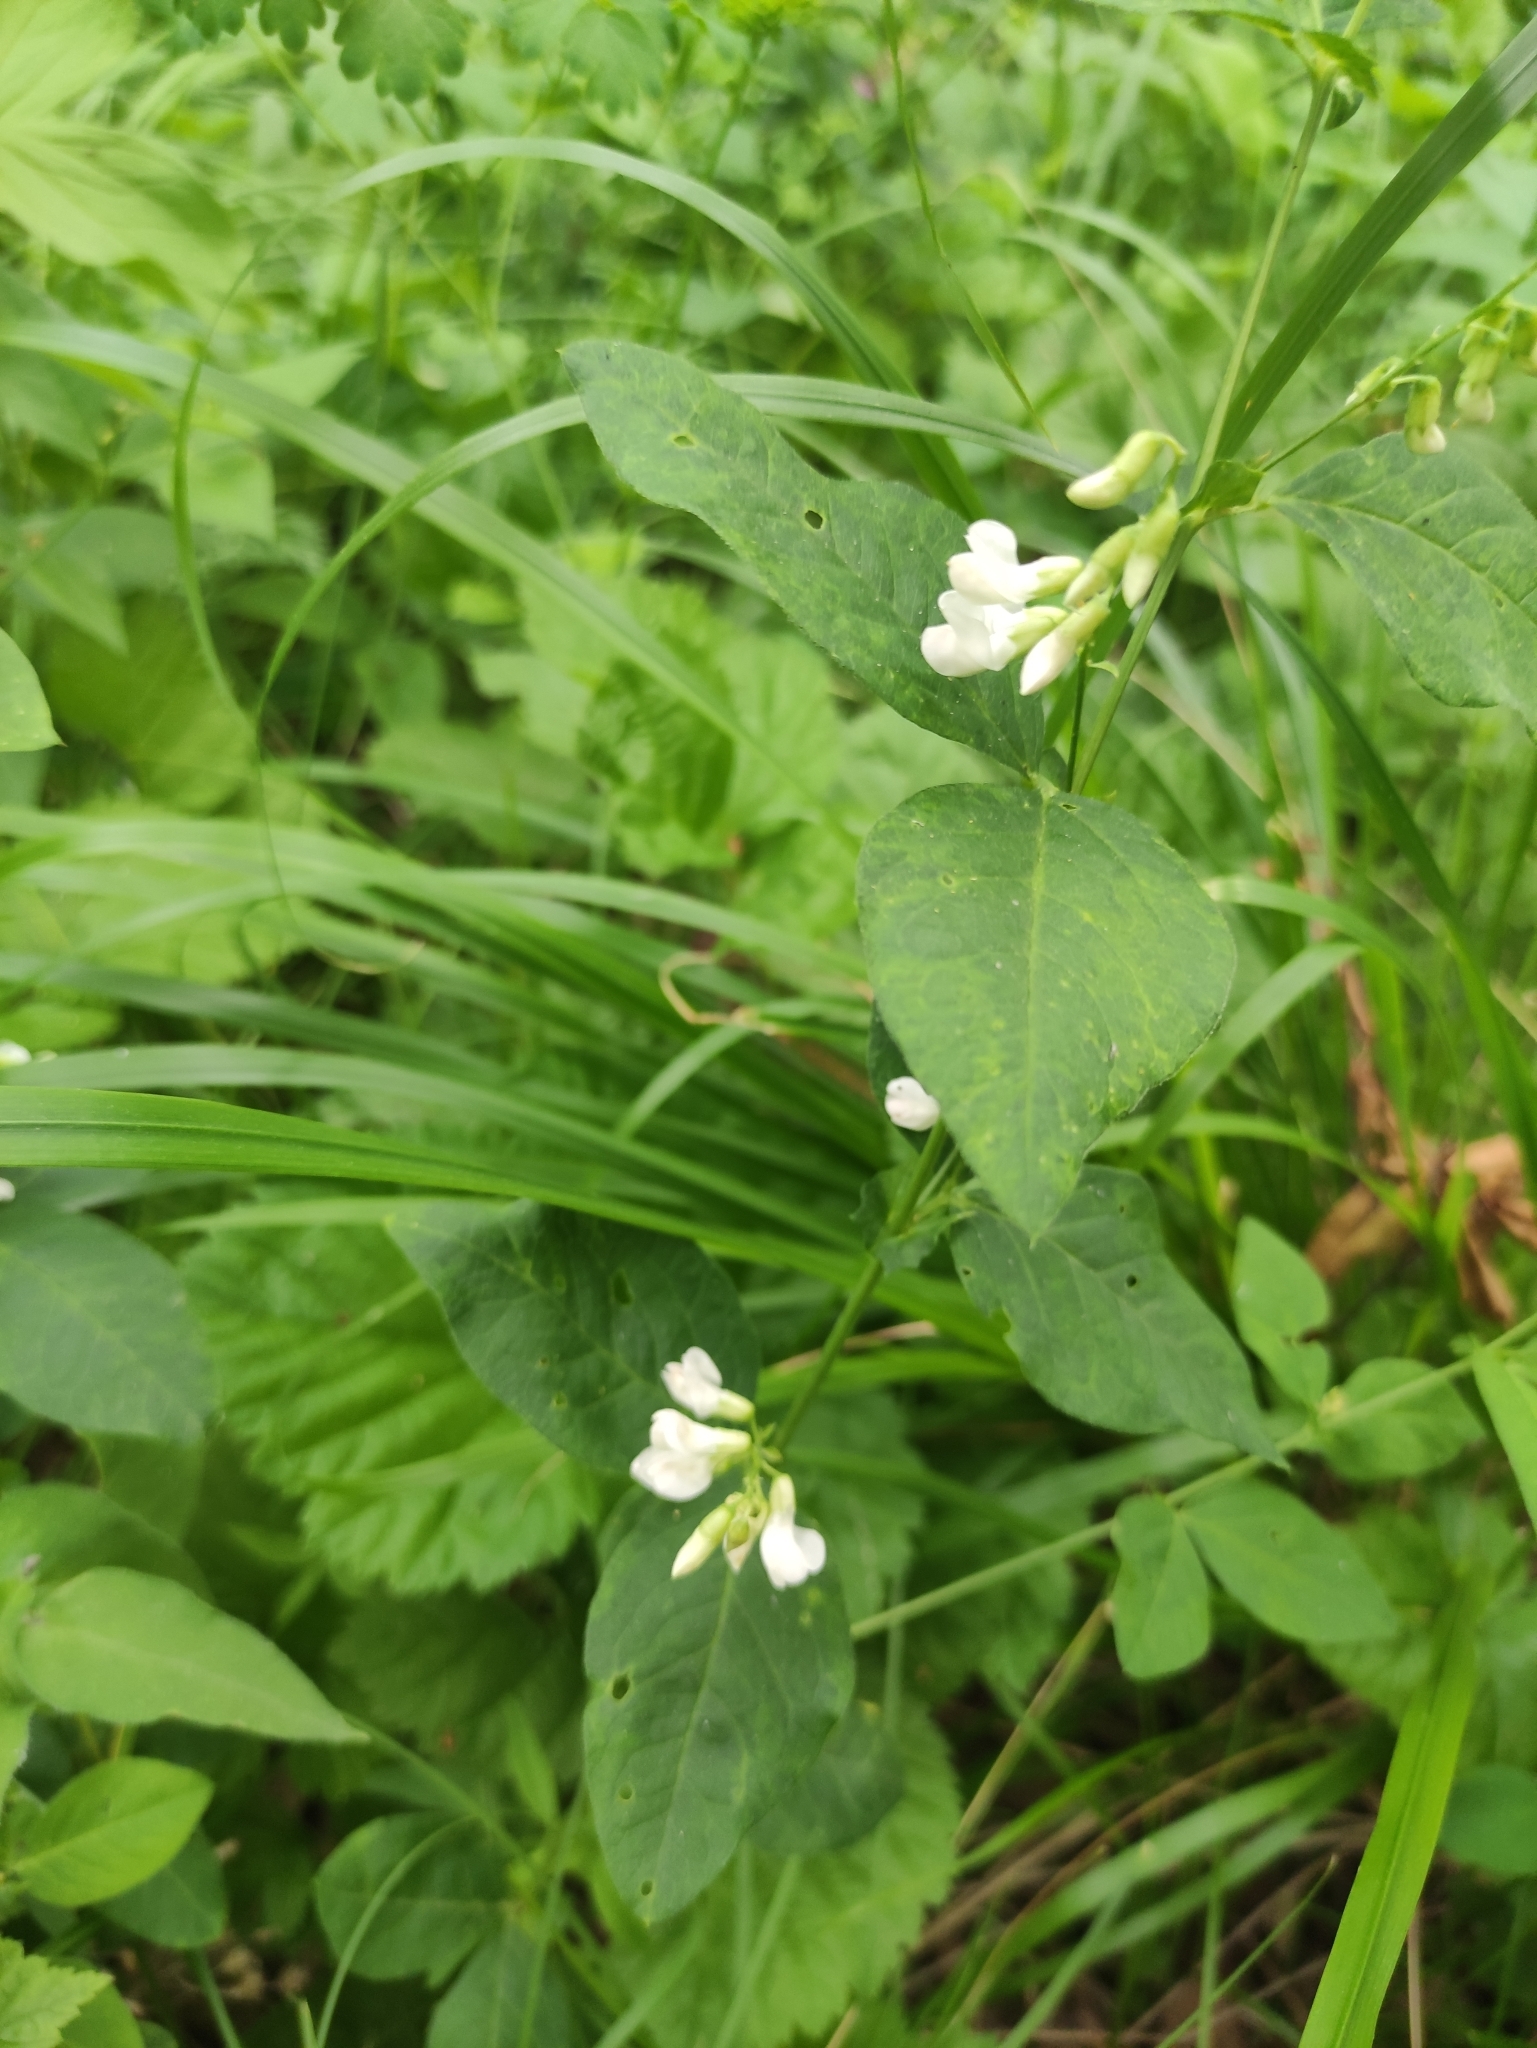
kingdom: Plantae
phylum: Tracheophyta
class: Magnoliopsida
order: Fabales
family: Fabaceae
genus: Vicia
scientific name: Vicia unijuga
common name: Two-leaf vetch
